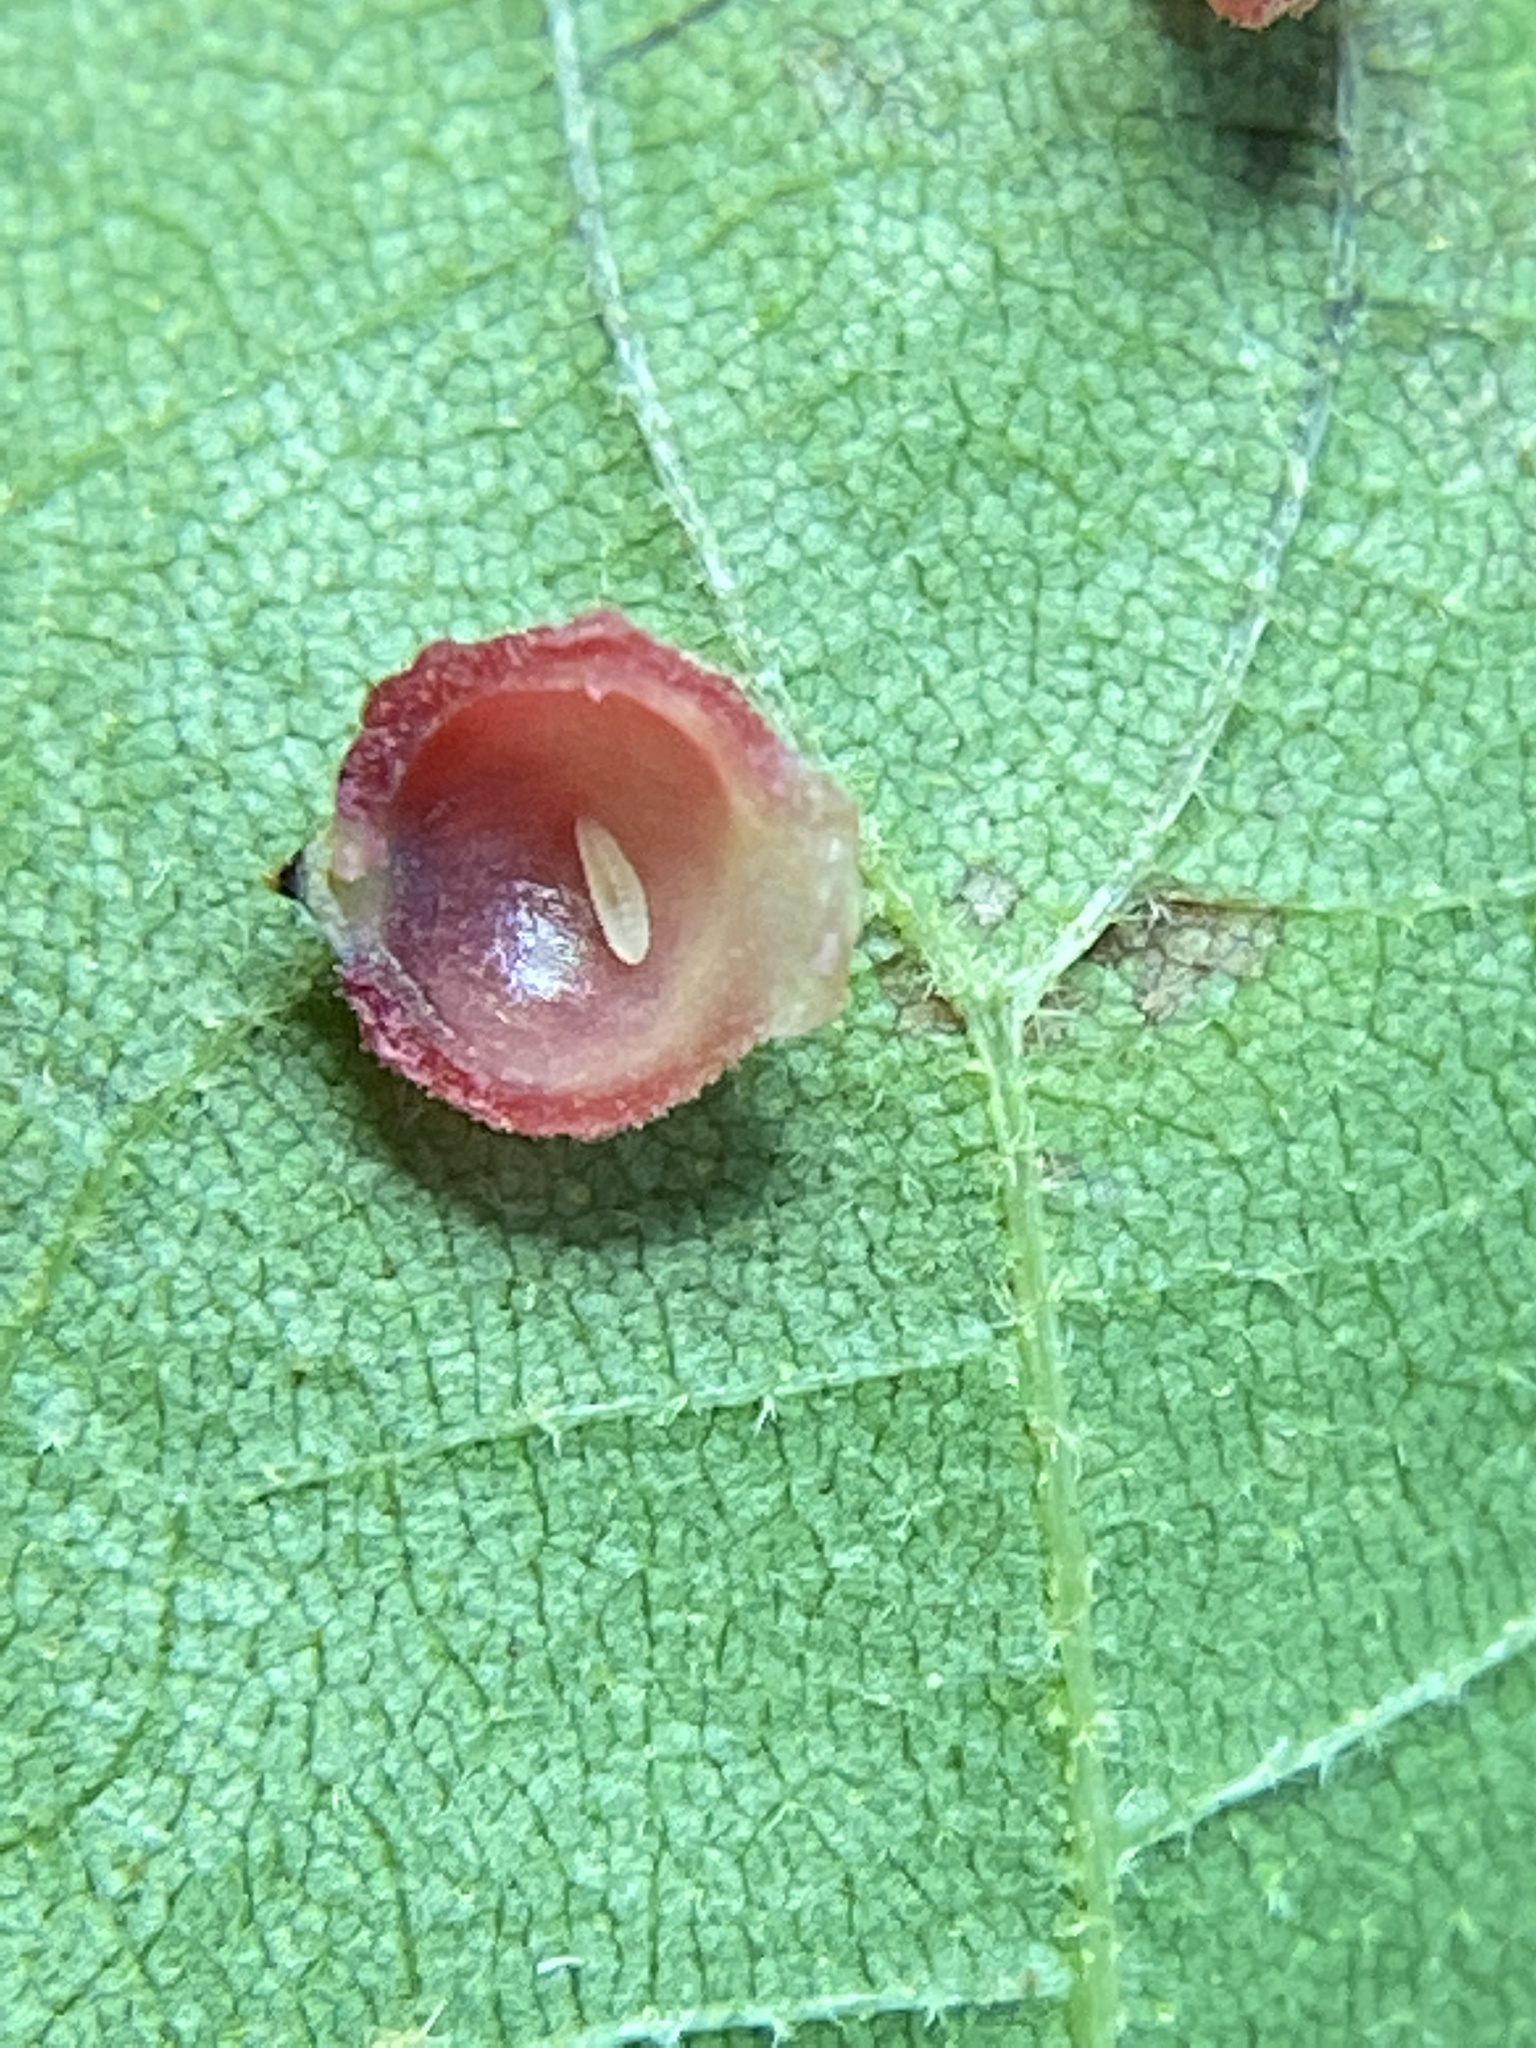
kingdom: Animalia
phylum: Arthropoda
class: Insecta
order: Diptera
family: Cecidomyiidae
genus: Caryomyia
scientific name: Caryomyia viscidolium
